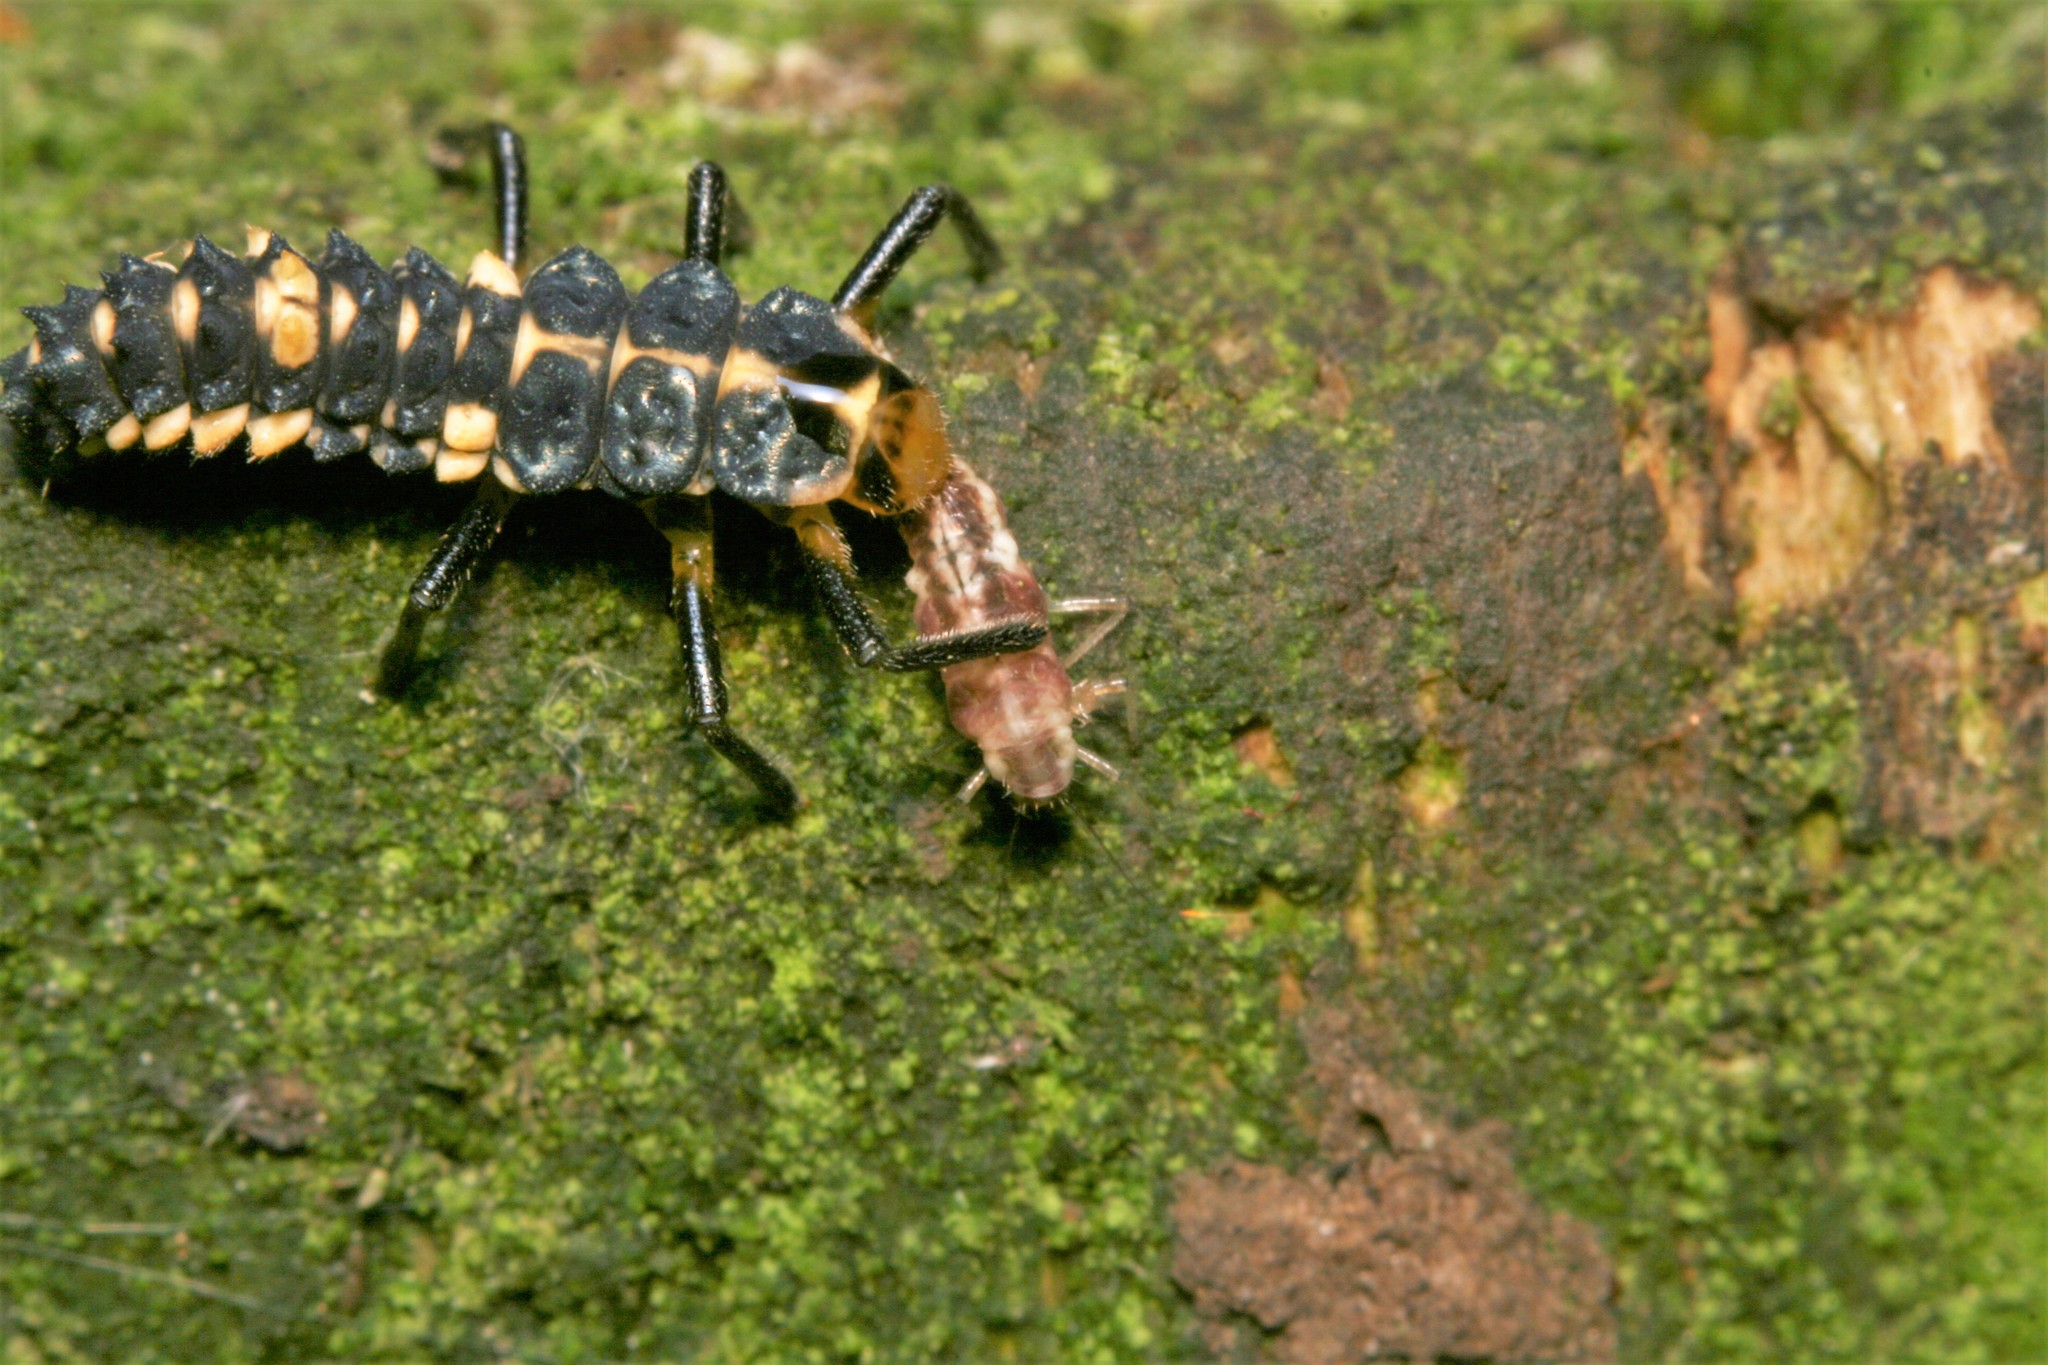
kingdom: Animalia
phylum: Arthropoda
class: Insecta
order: Coleoptera
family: Coccinellidae
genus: Cleobora
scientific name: Cleobora
